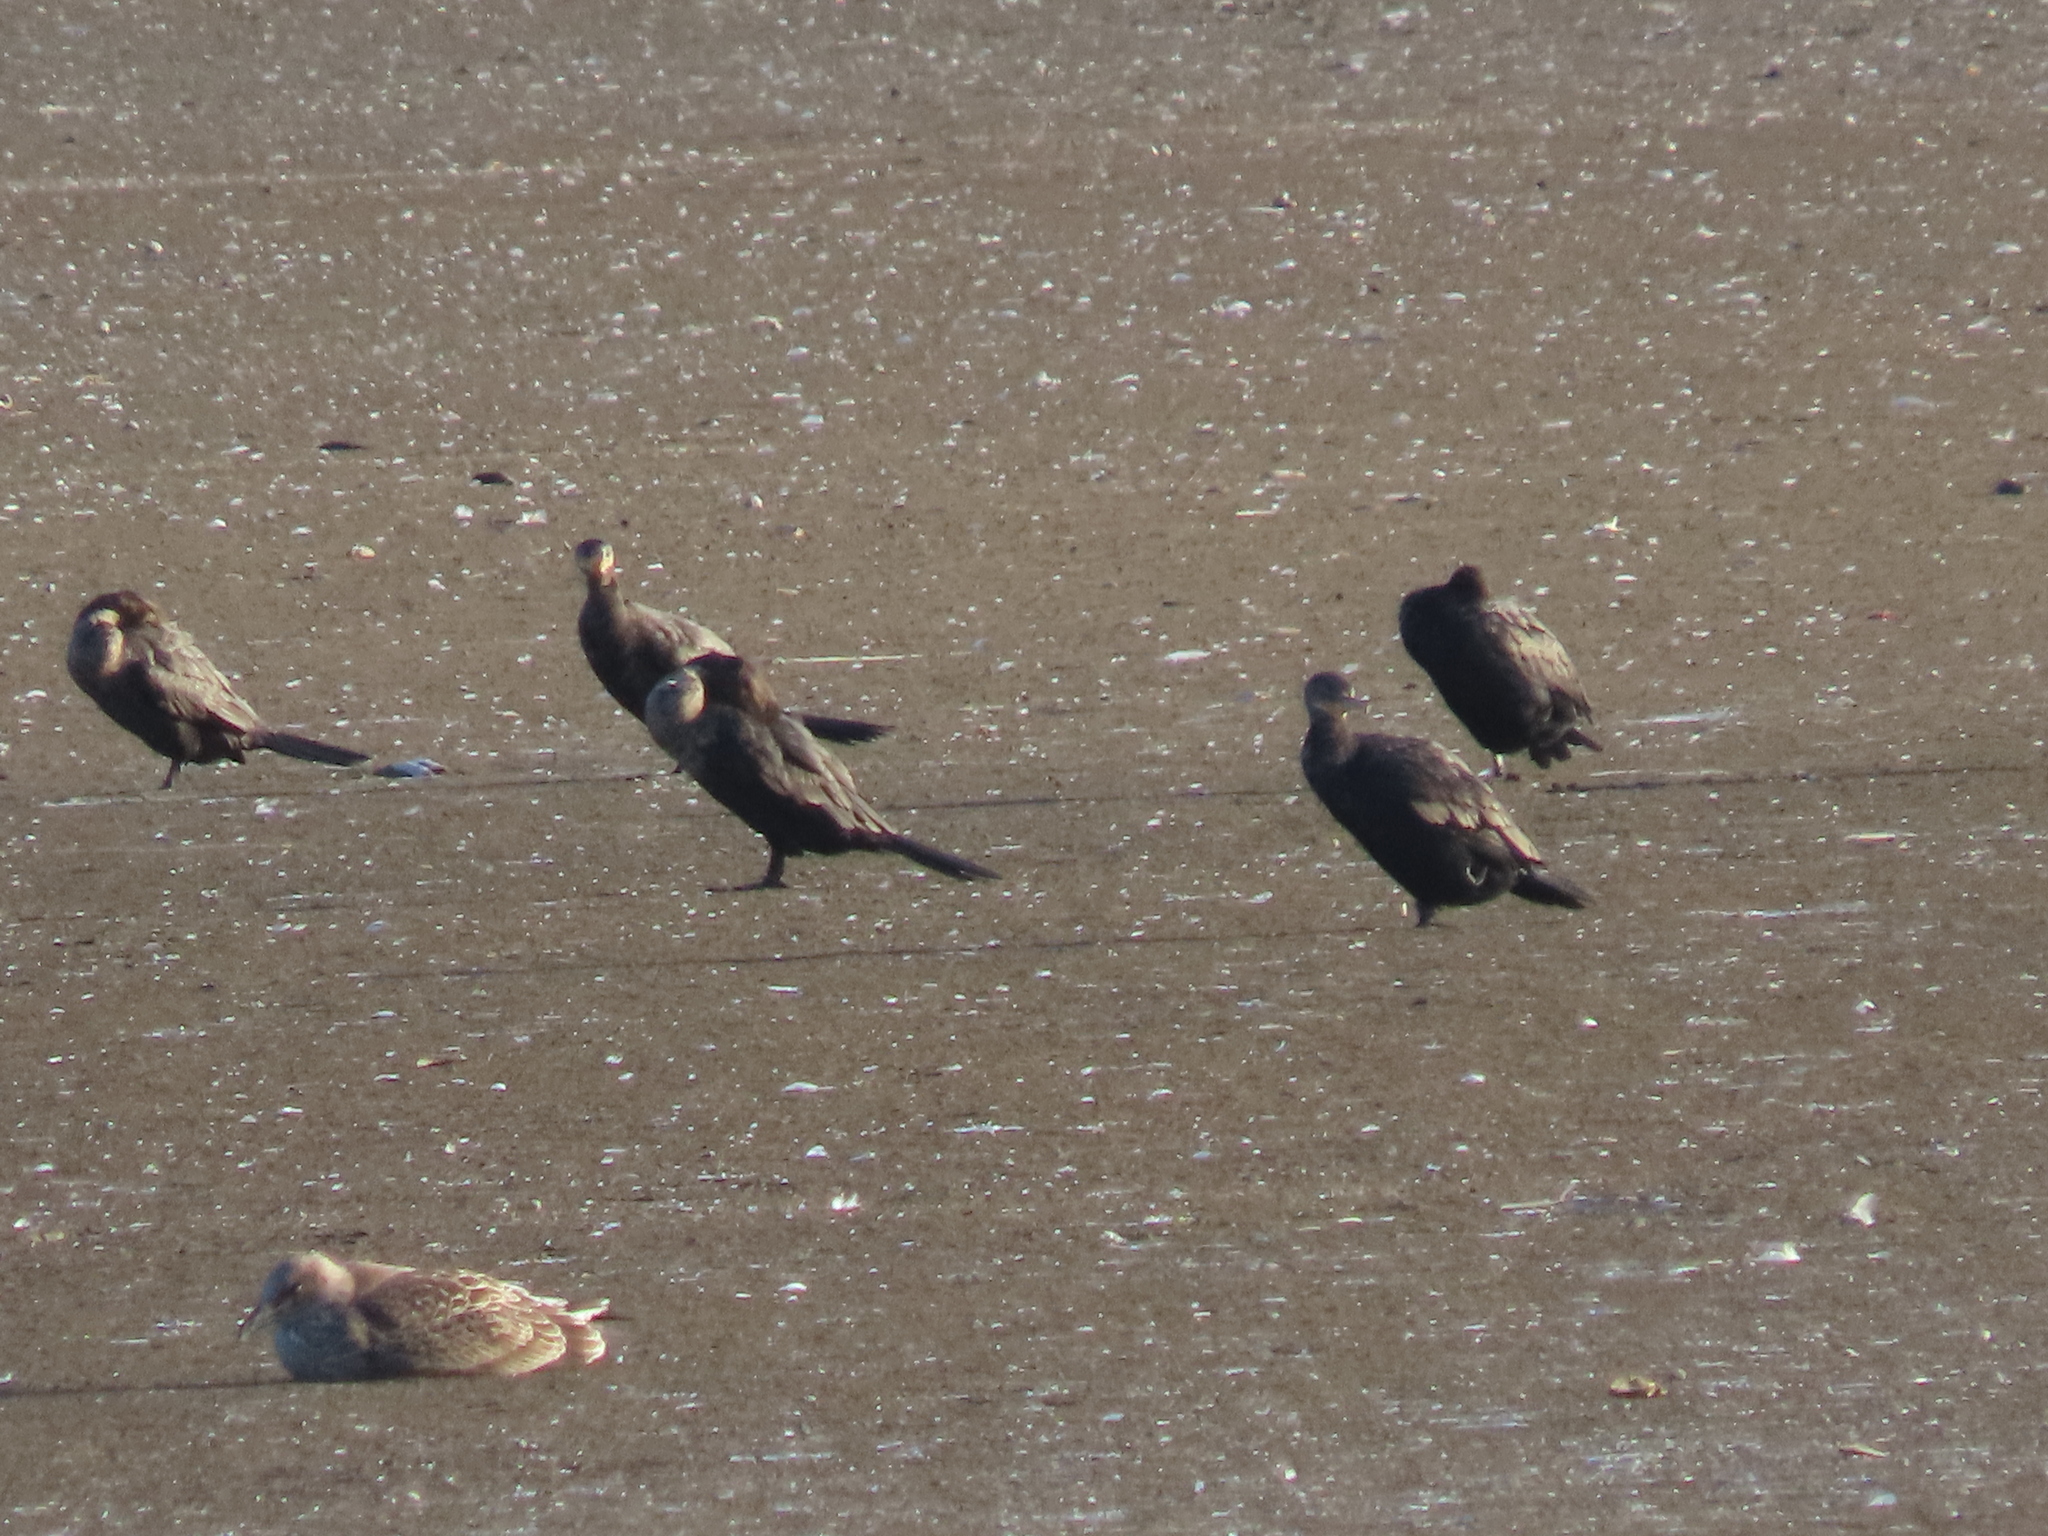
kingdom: Animalia
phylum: Chordata
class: Aves
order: Suliformes
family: Phalacrocoracidae
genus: Phalacrocorax
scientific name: Phalacrocorax brasilianus
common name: Neotropic cormorant
